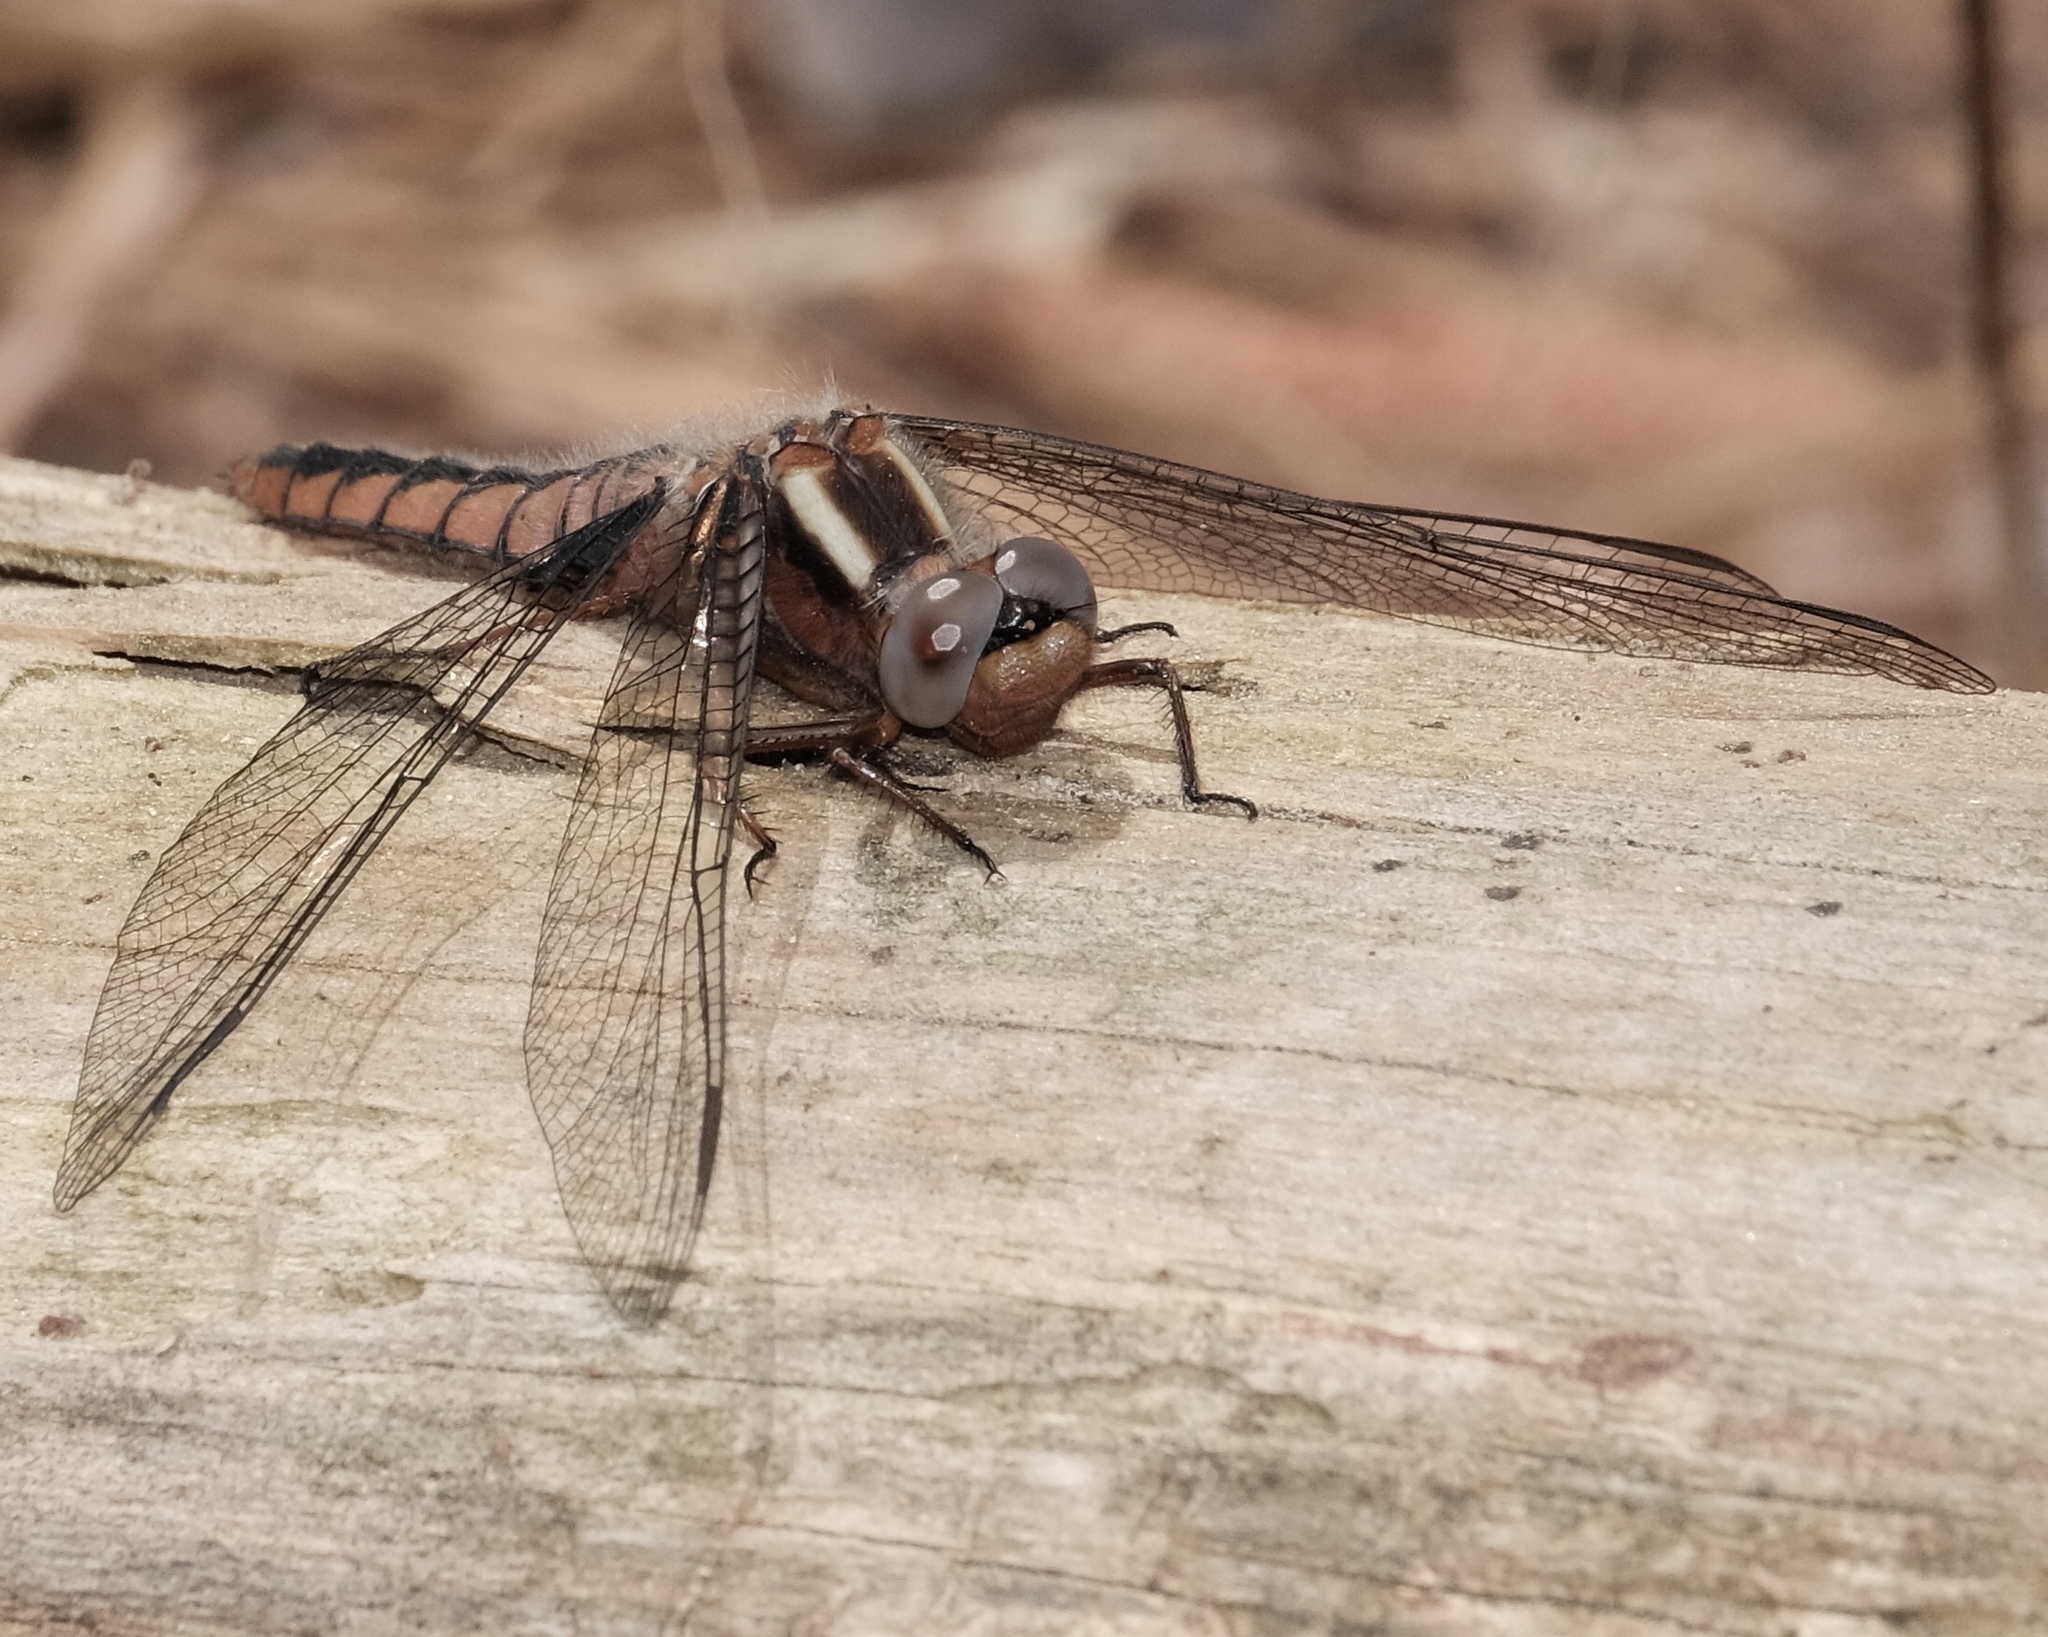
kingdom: Animalia
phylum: Arthropoda
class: Insecta
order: Odonata
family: Libellulidae
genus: Ladona
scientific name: Ladona deplanata
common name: Blue corporal
